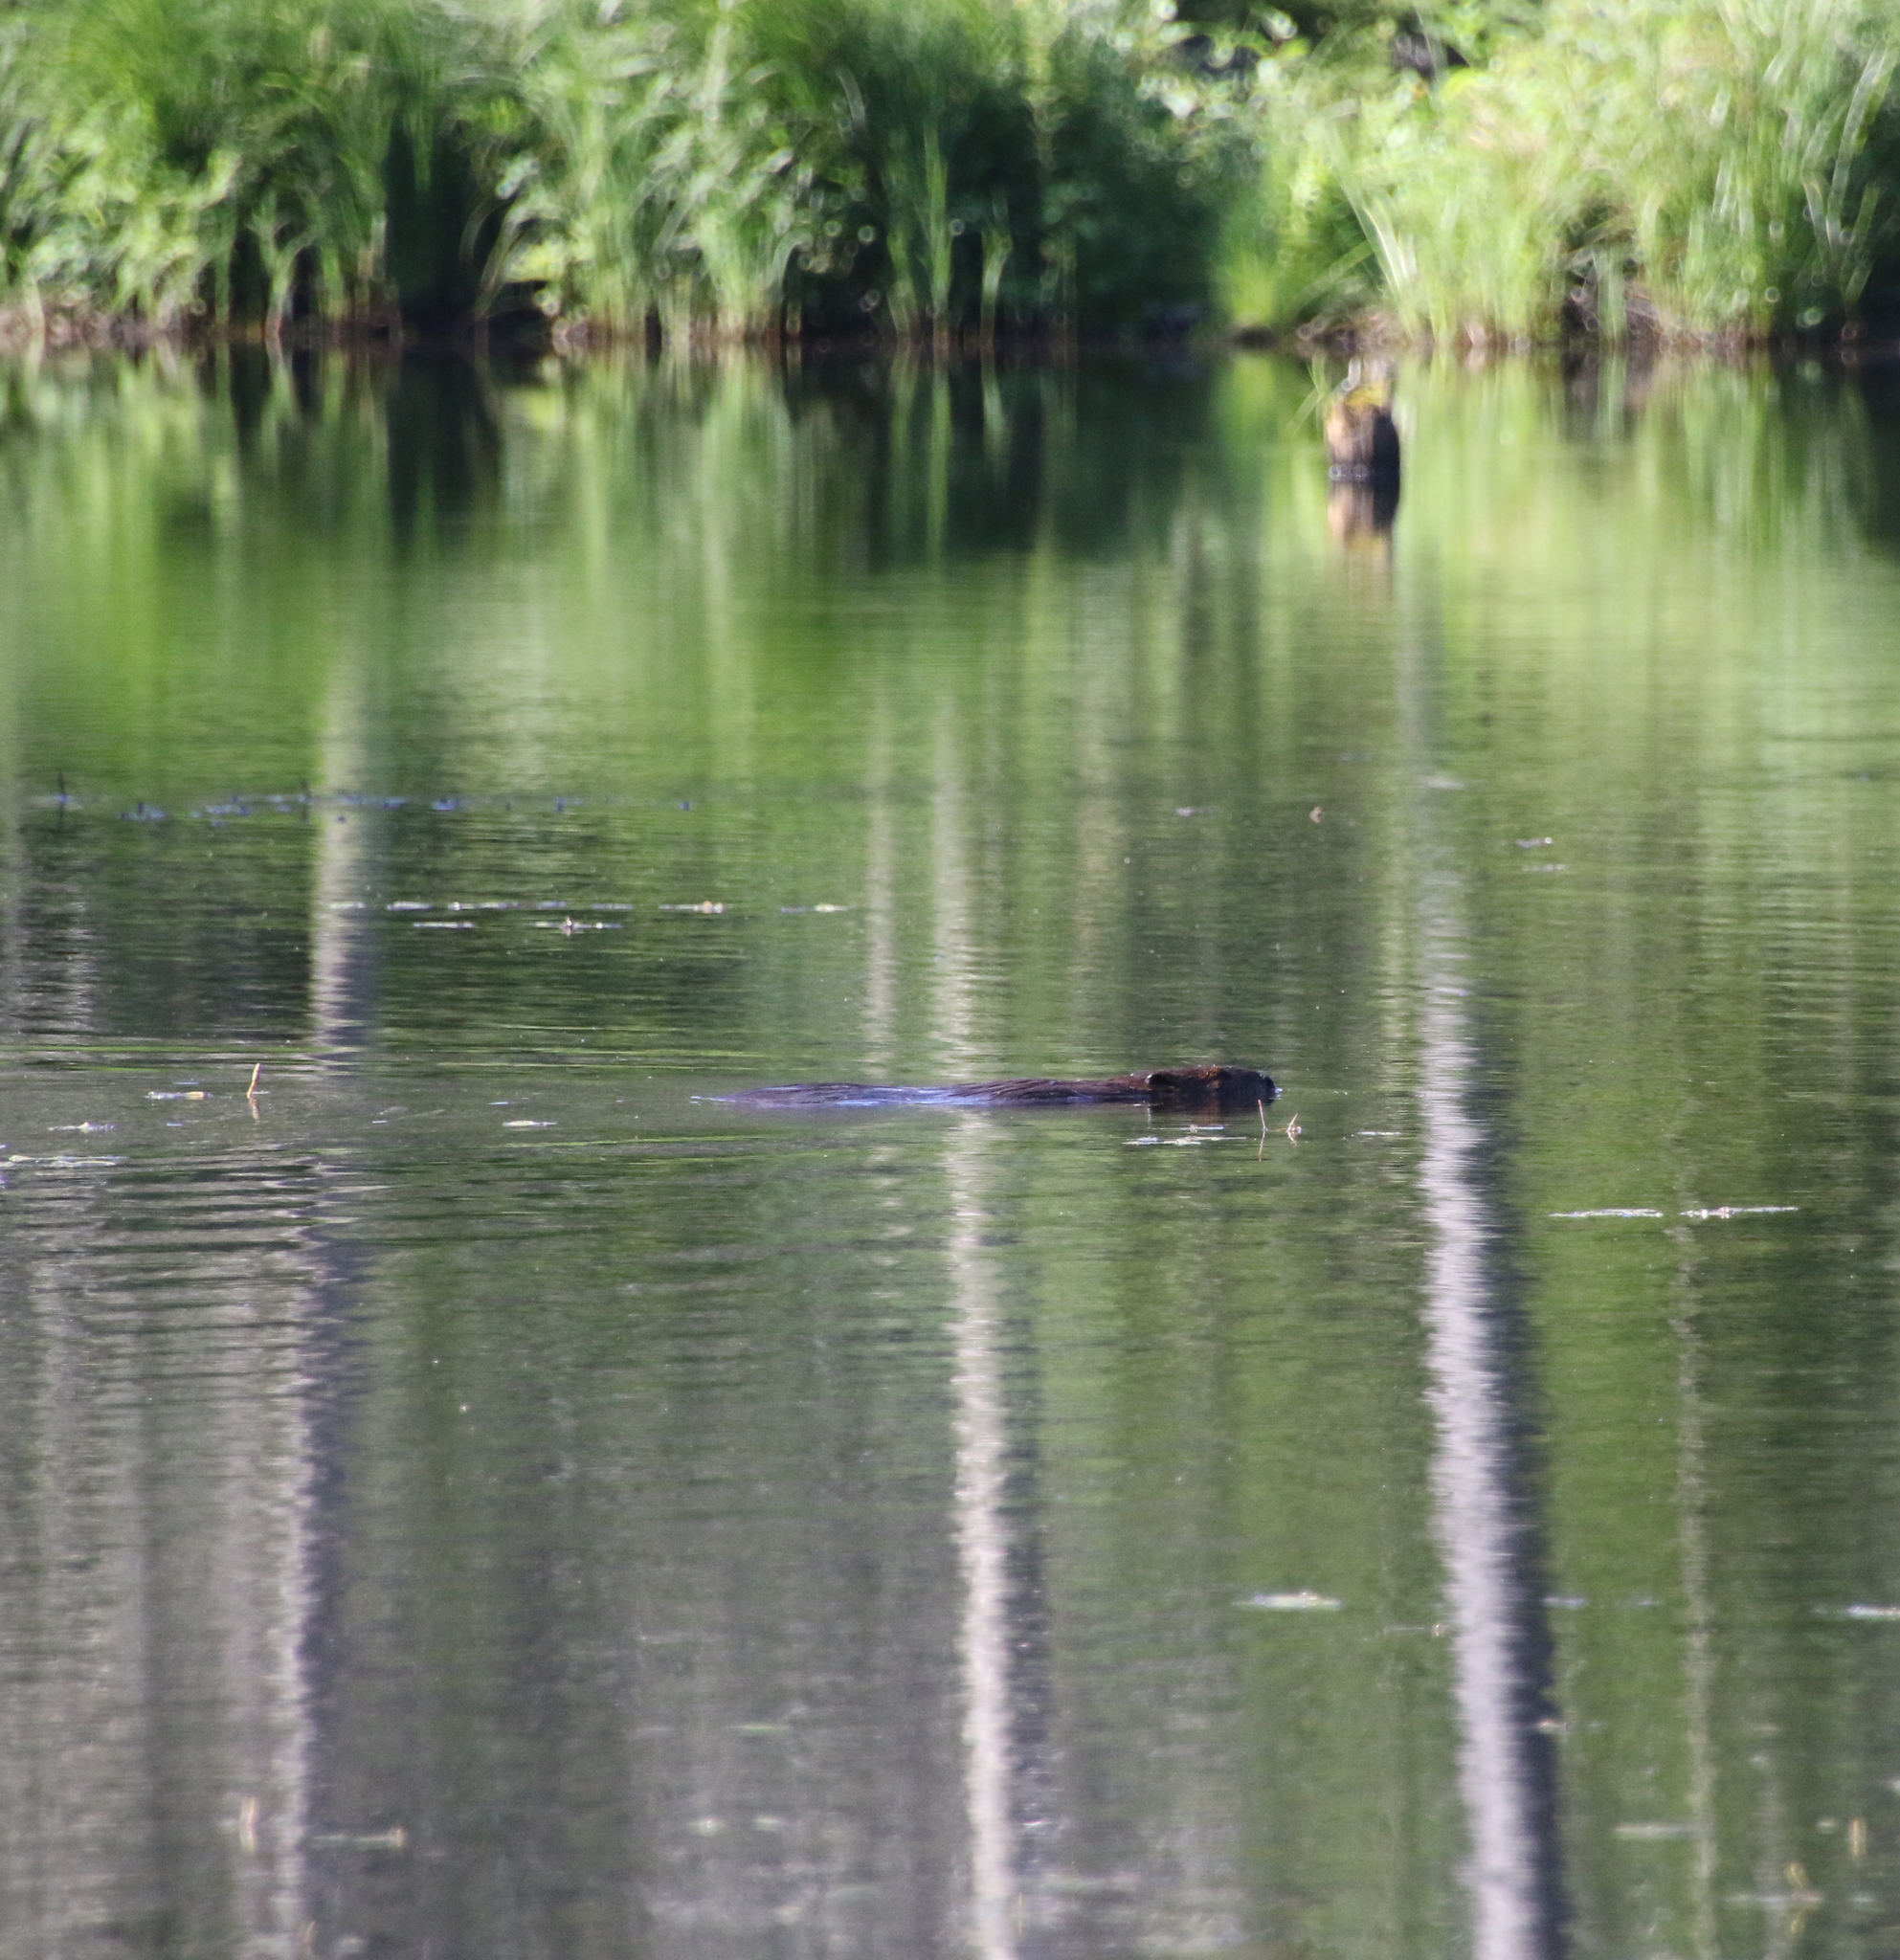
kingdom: Animalia
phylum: Chordata
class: Mammalia
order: Rodentia
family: Castoridae
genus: Castor
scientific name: Castor canadensis
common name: American beaver
